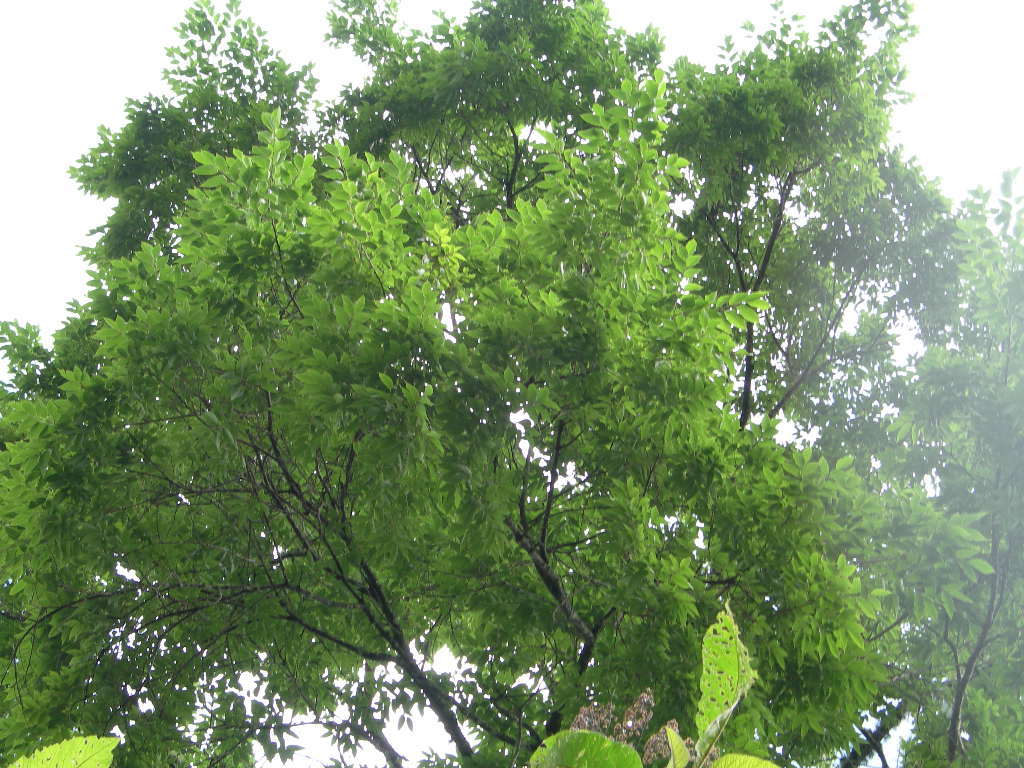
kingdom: Plantae
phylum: Tracheophyta
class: Magnoliopsida
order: Rosales
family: Ulmaceae
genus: Ulmus
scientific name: Ulmus mexicana
